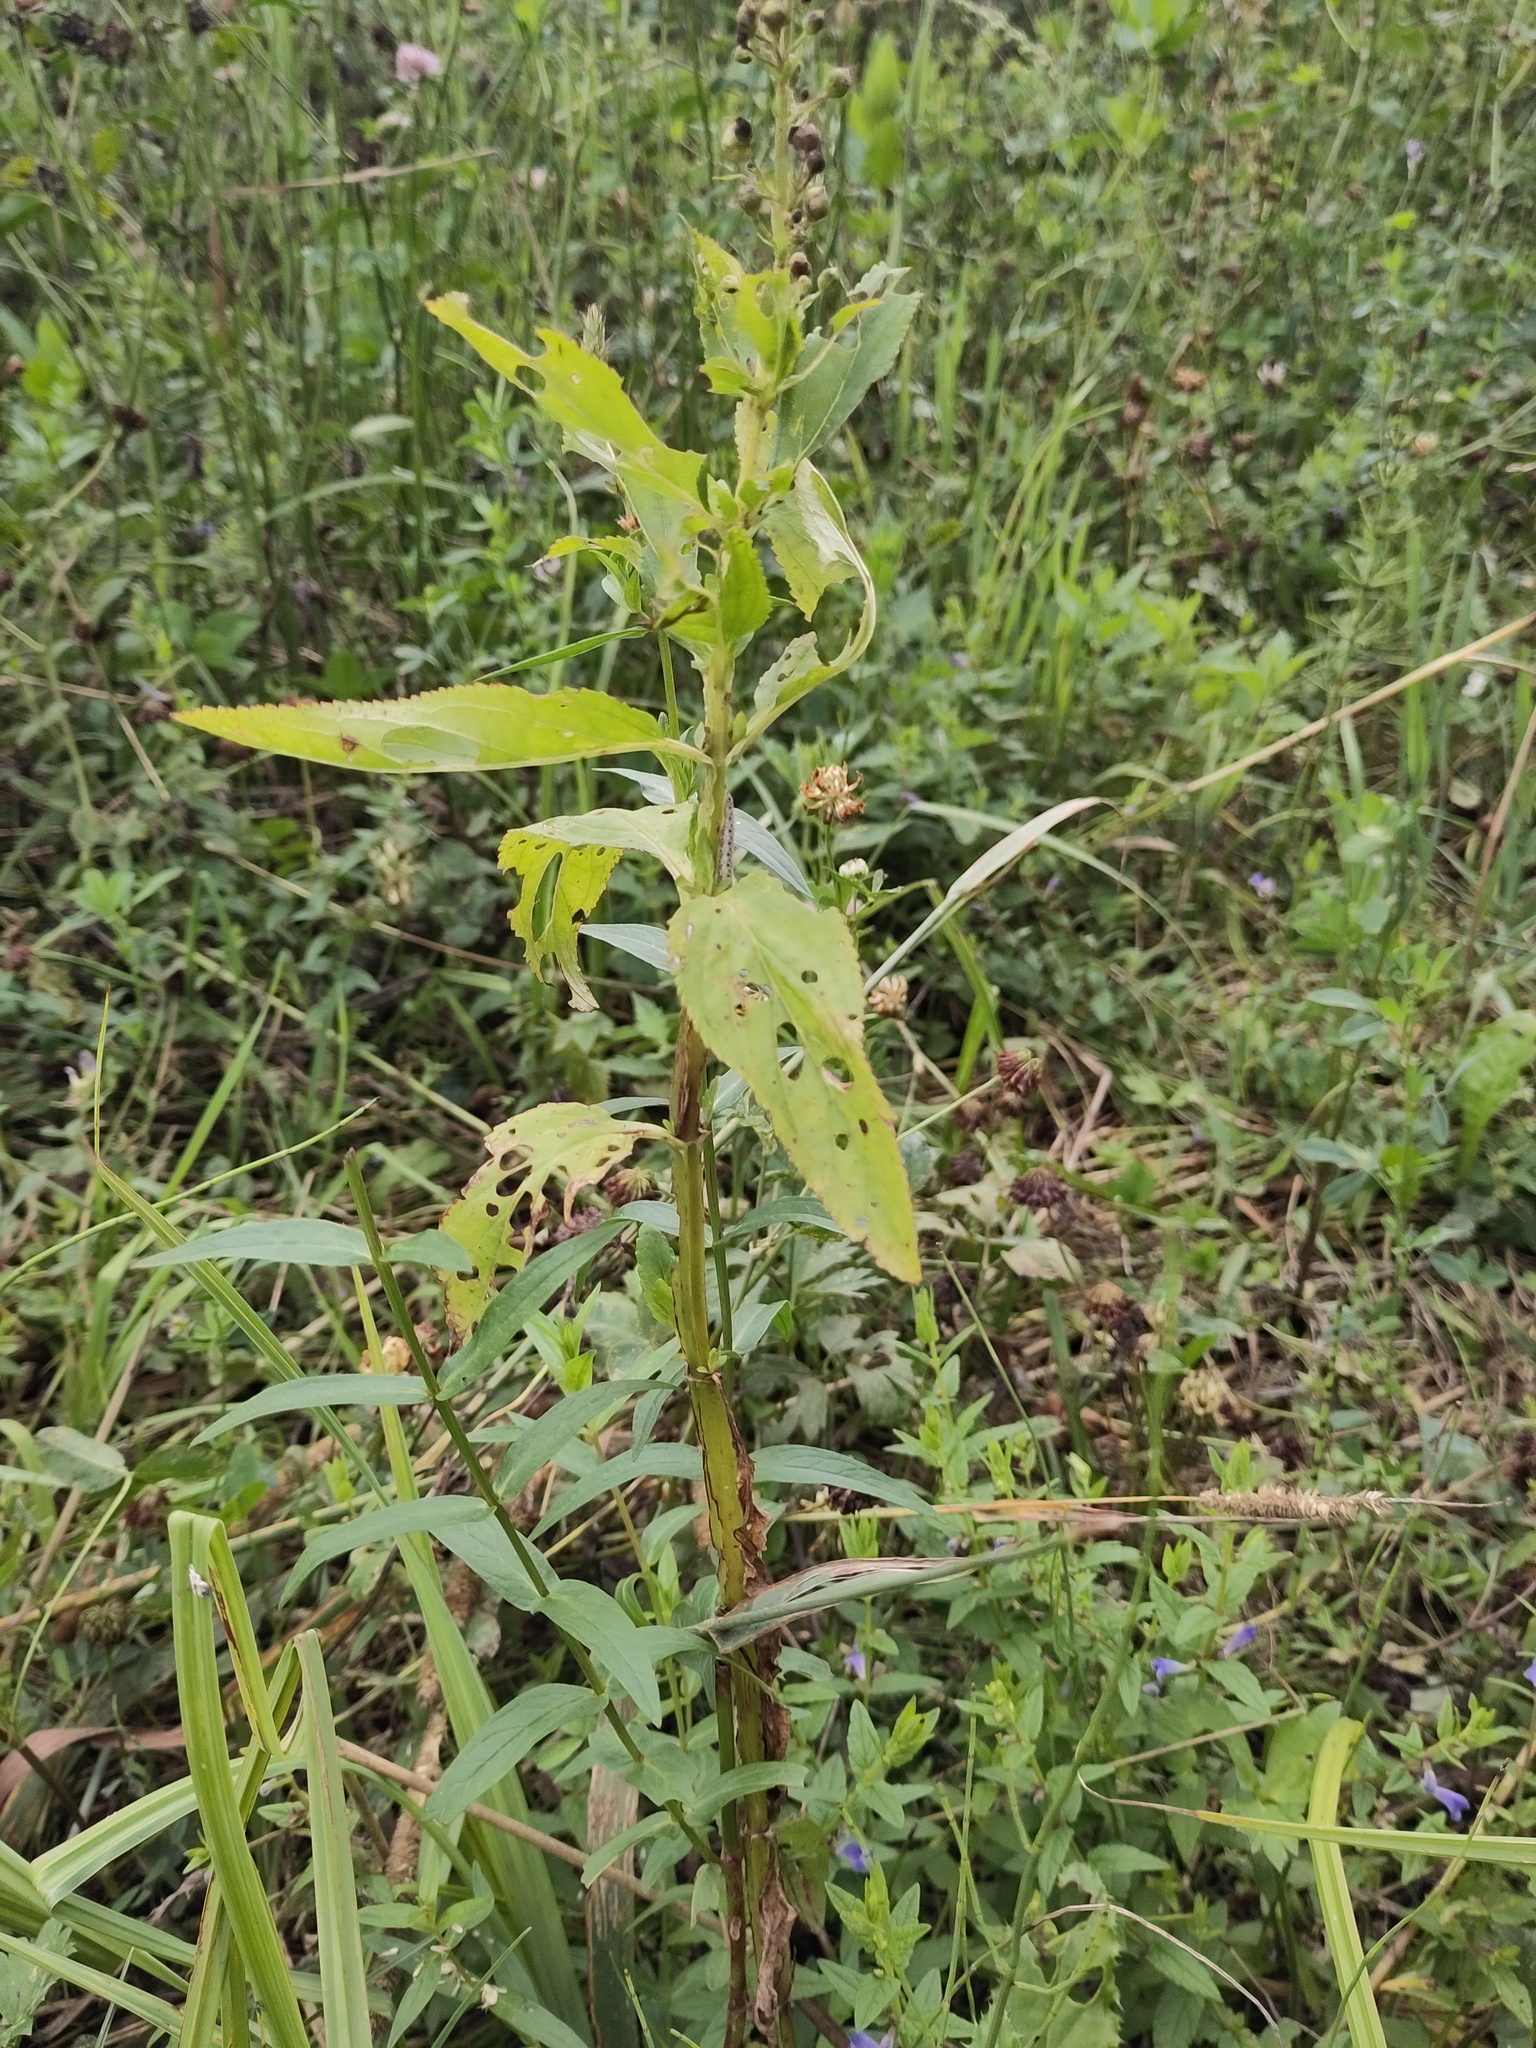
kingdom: Plantae
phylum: Tracheophyta
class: Magnoliopsida
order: Lamiales
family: Scrophulariaceae
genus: Scrophularia
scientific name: Scrophularia umbrosa
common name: Green figwort
